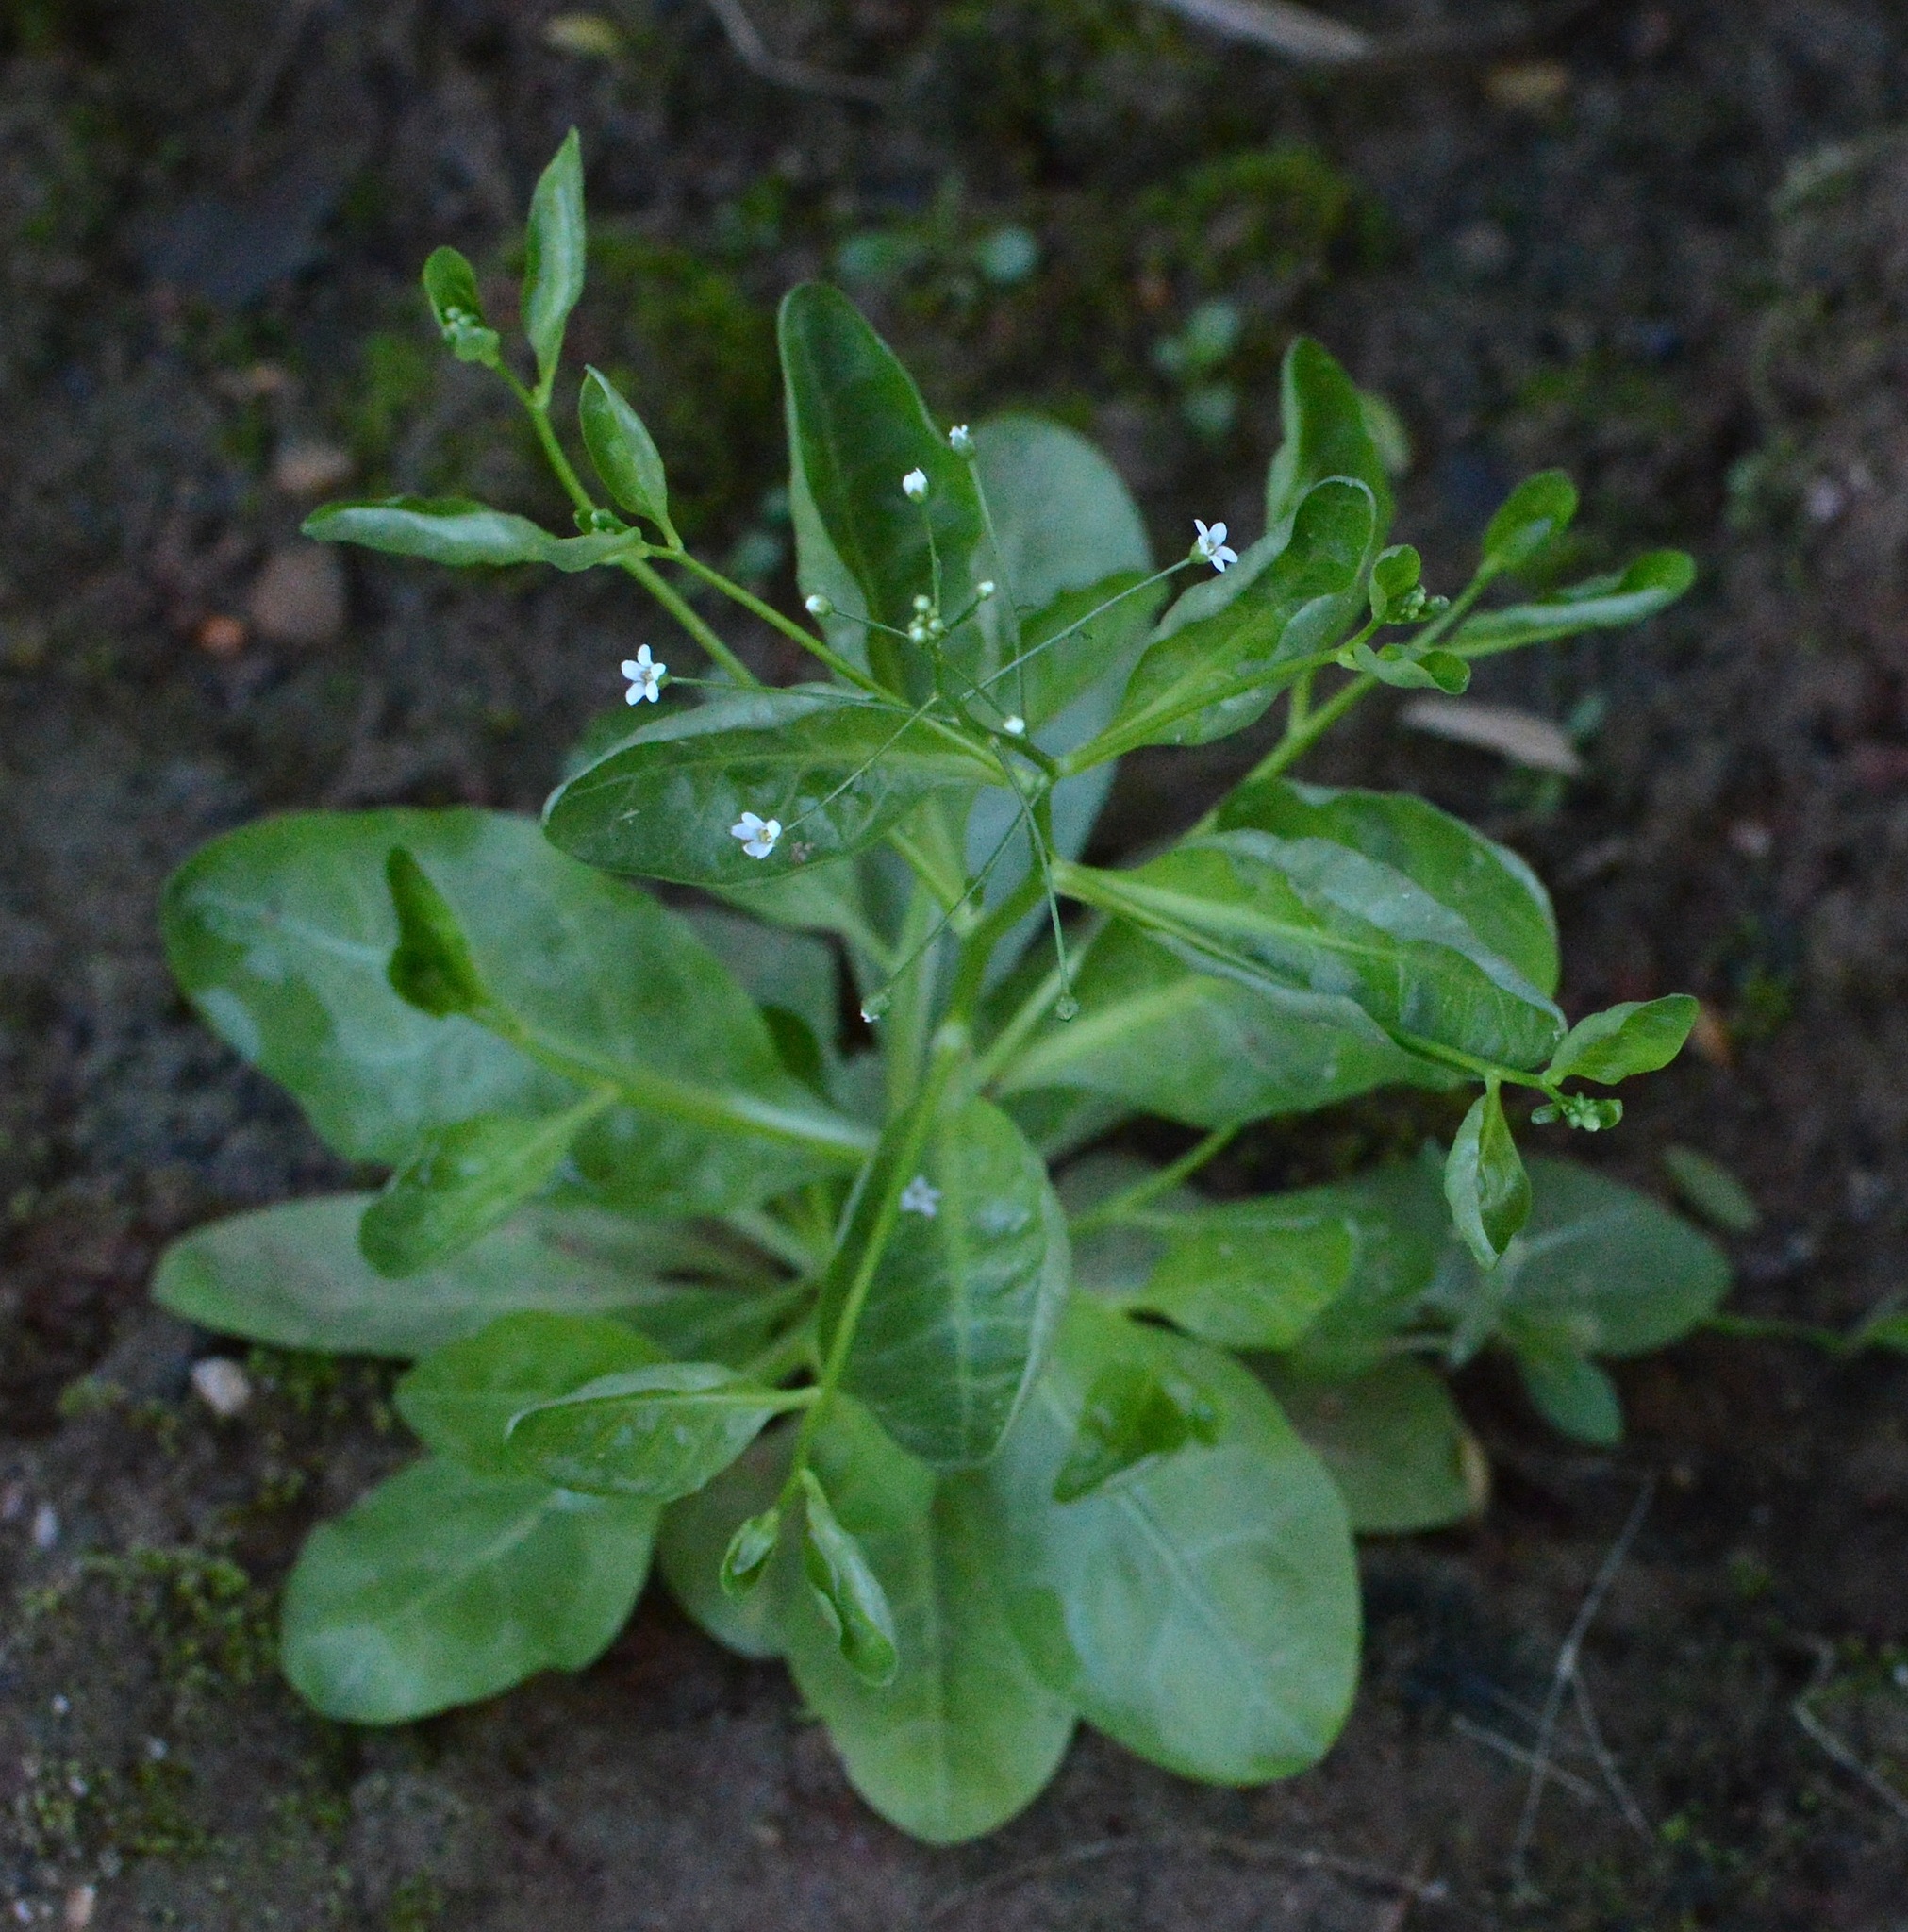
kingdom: Plantae
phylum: Tracheophyta
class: Magnoliopsida
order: Ericales
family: Primulaceae
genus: Samolus
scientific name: Samolus parviflorus
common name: False water pimpernel
